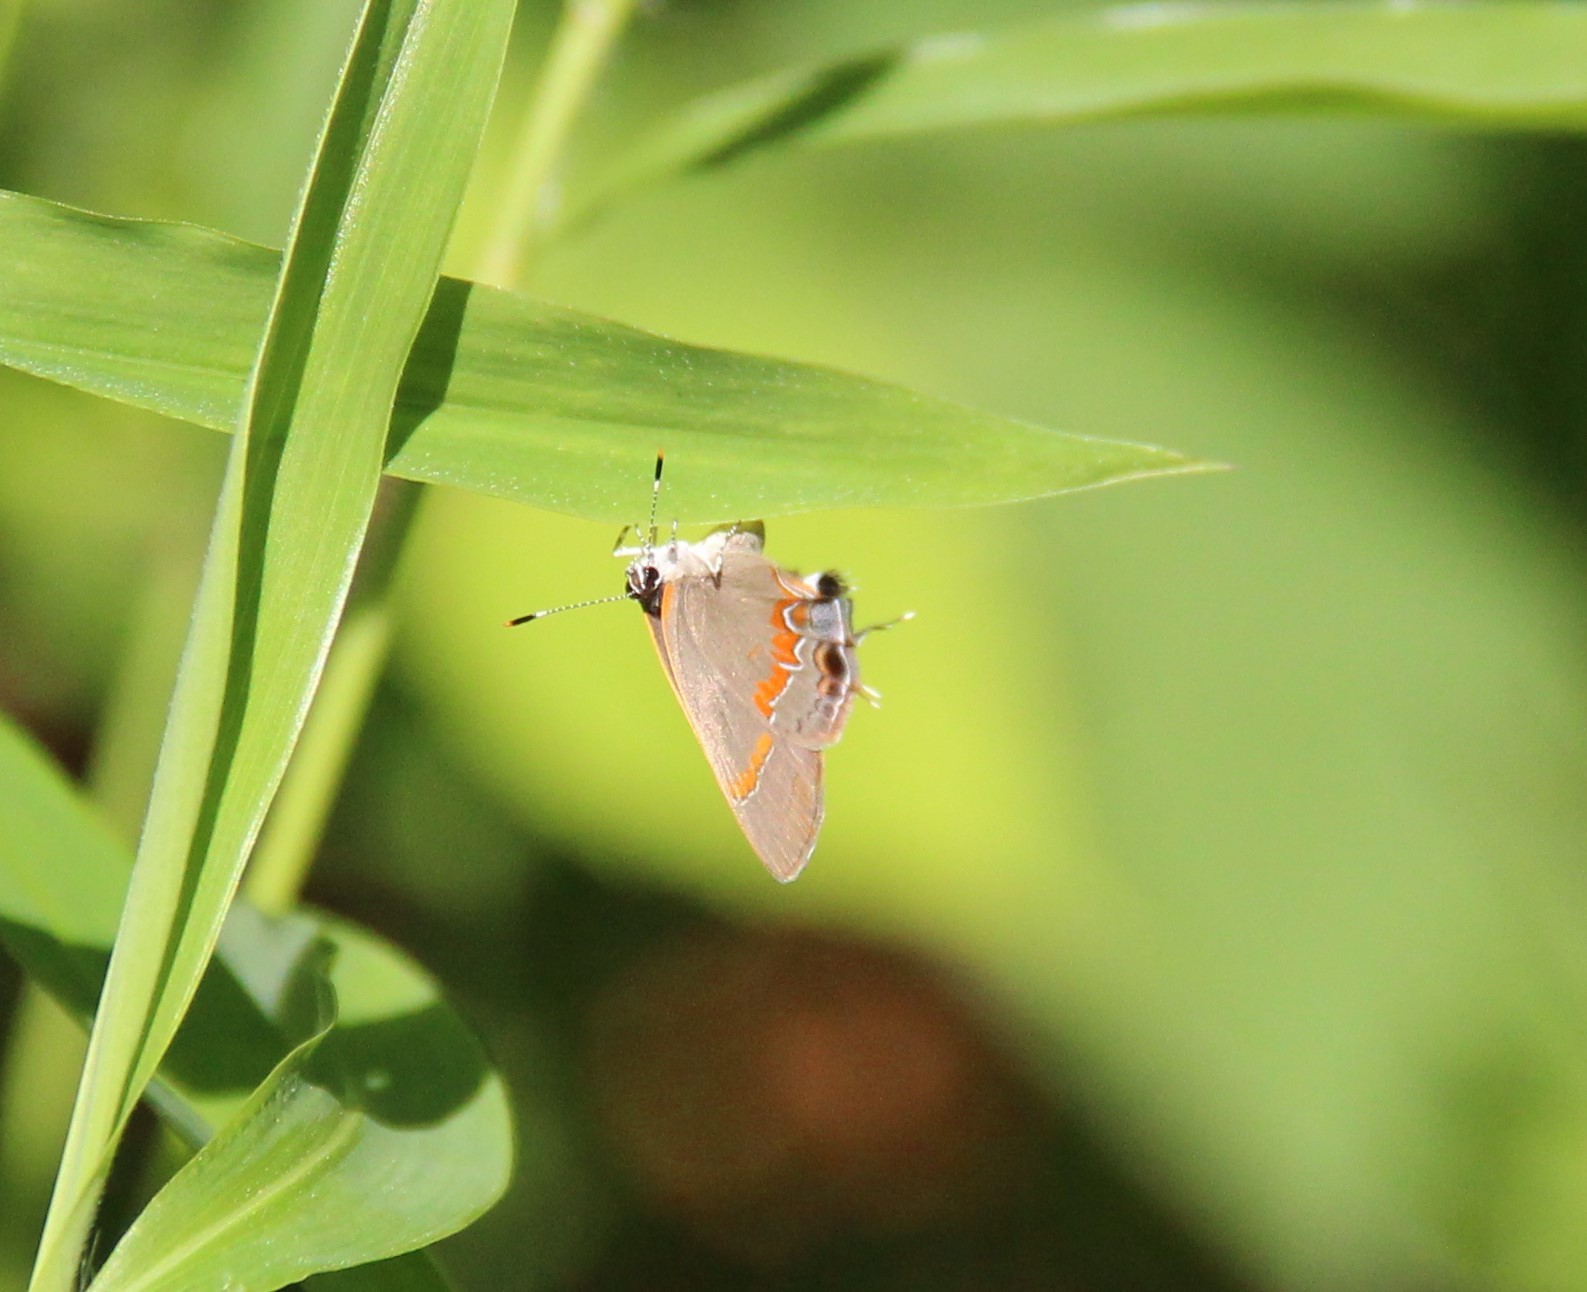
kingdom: Animalia
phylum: Arthropoda
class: Insecta
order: Lepidoptera
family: Lycaenidae
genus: Calycopis
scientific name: Calycopis cecrops
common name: Red-banded hairstreak
